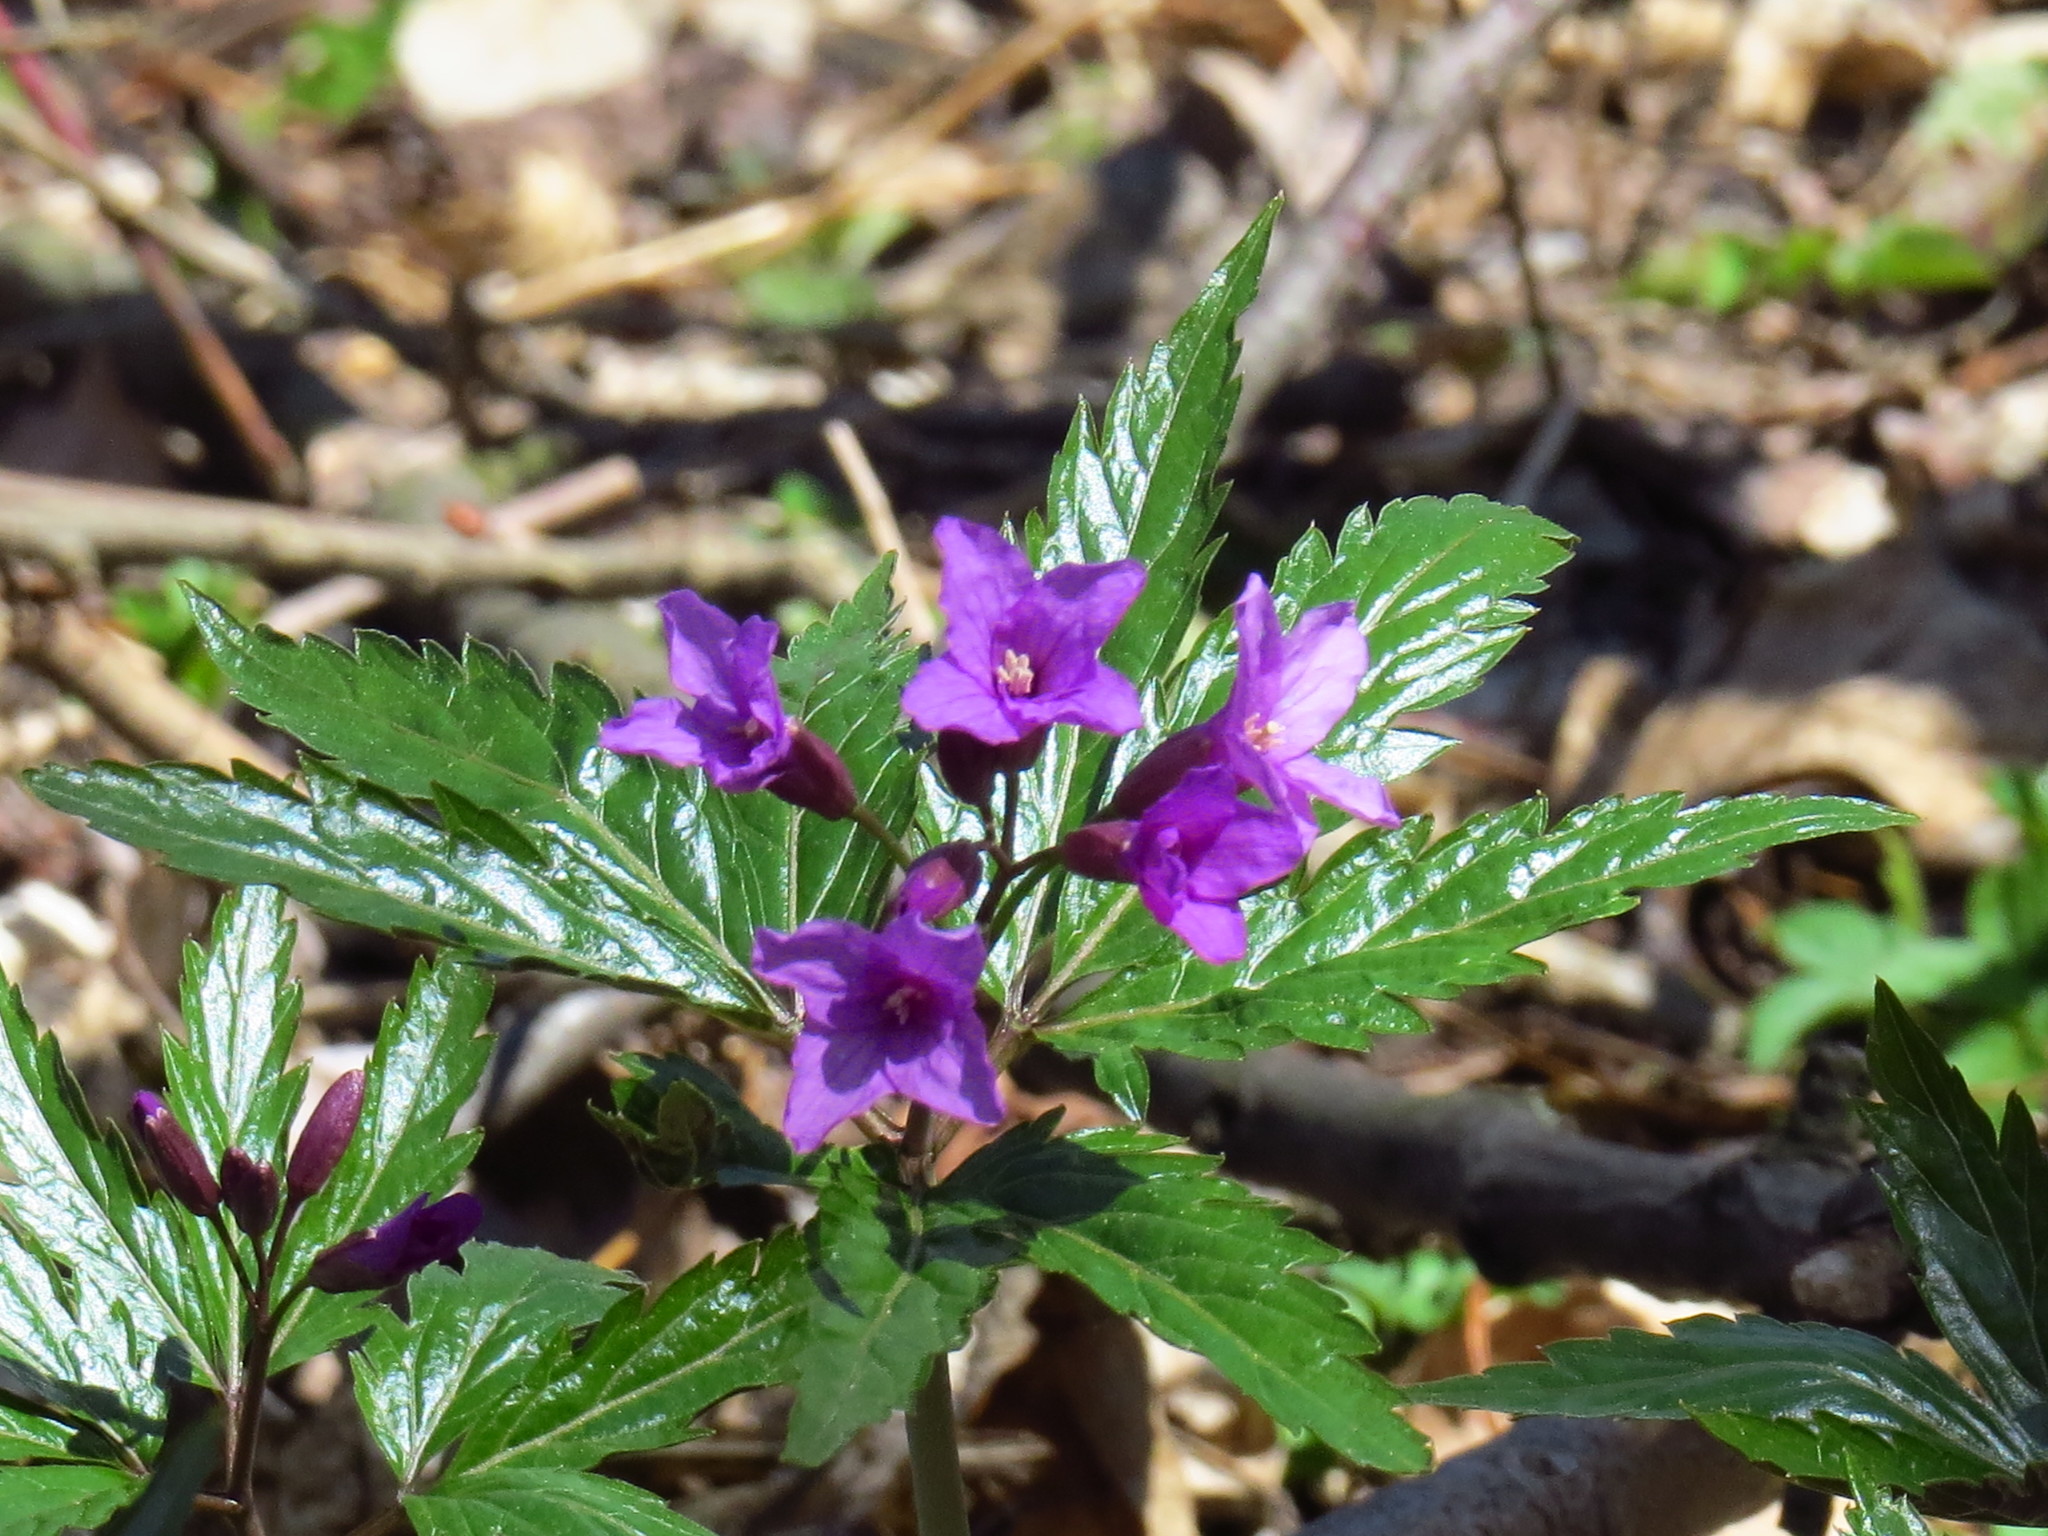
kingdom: Plantae
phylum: Tracheophyta
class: Magnoliopsida
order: Brassicales
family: Brassicaceae
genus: Cardamine
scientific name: Cardamine glanduligera
